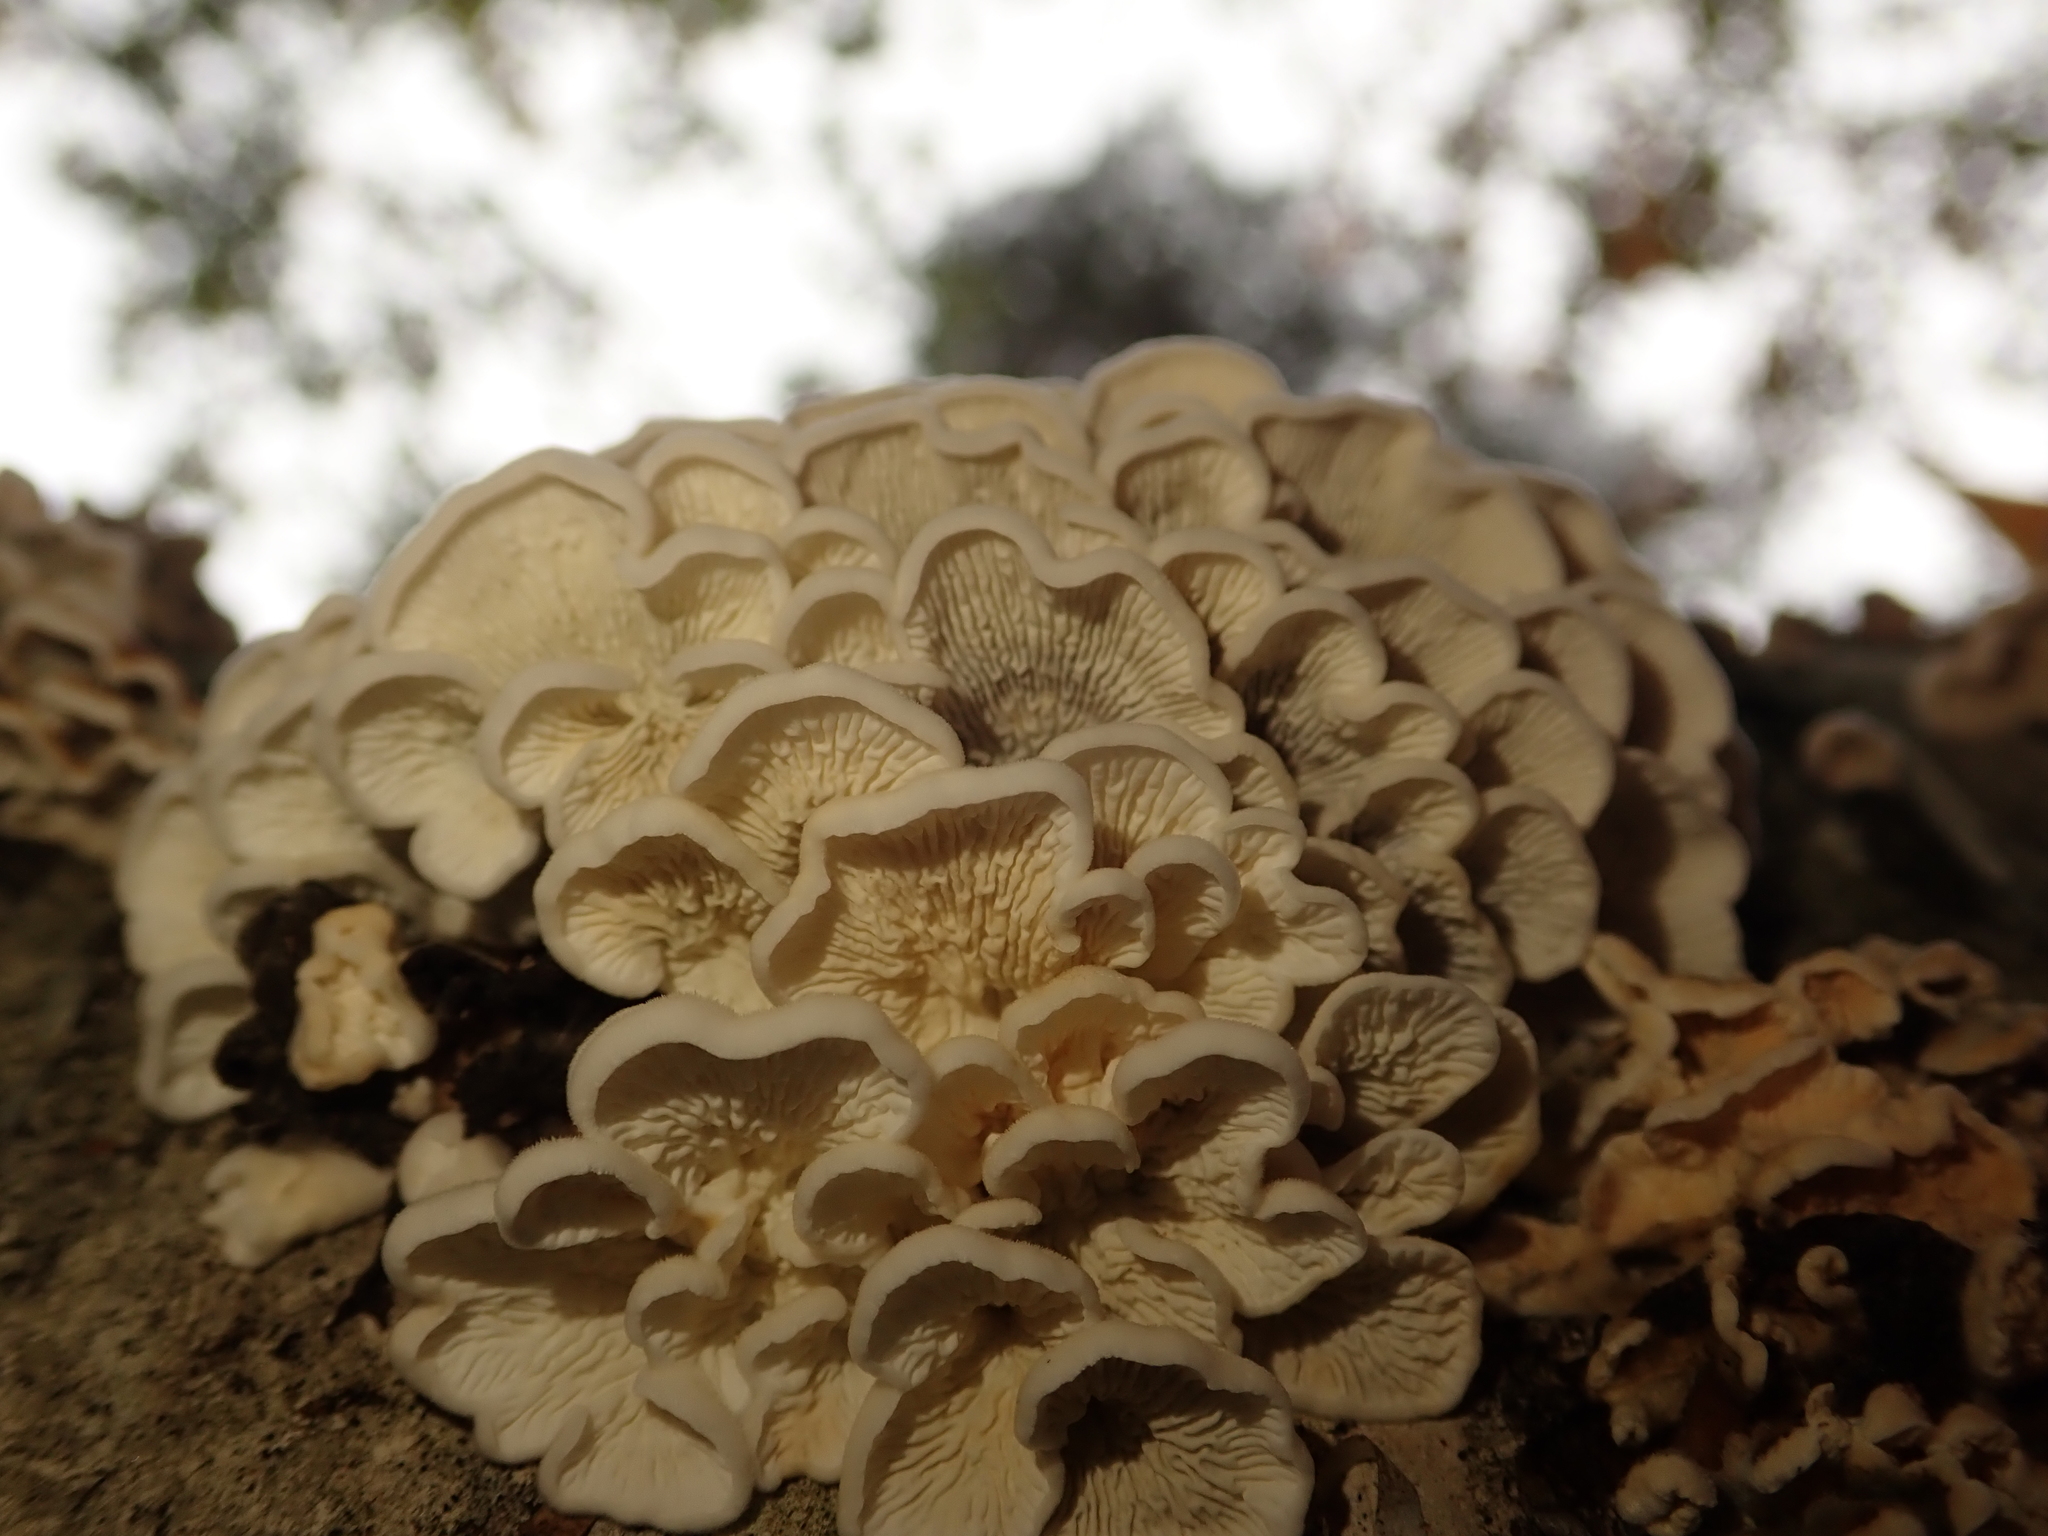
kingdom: Fungi
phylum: Basidiomycota
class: Agaricomycetes
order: Amylocorticiales
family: Amylocorticiaceae
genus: Plicaturopsis
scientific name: Plicaturopsis crispa
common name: Crimped gill
